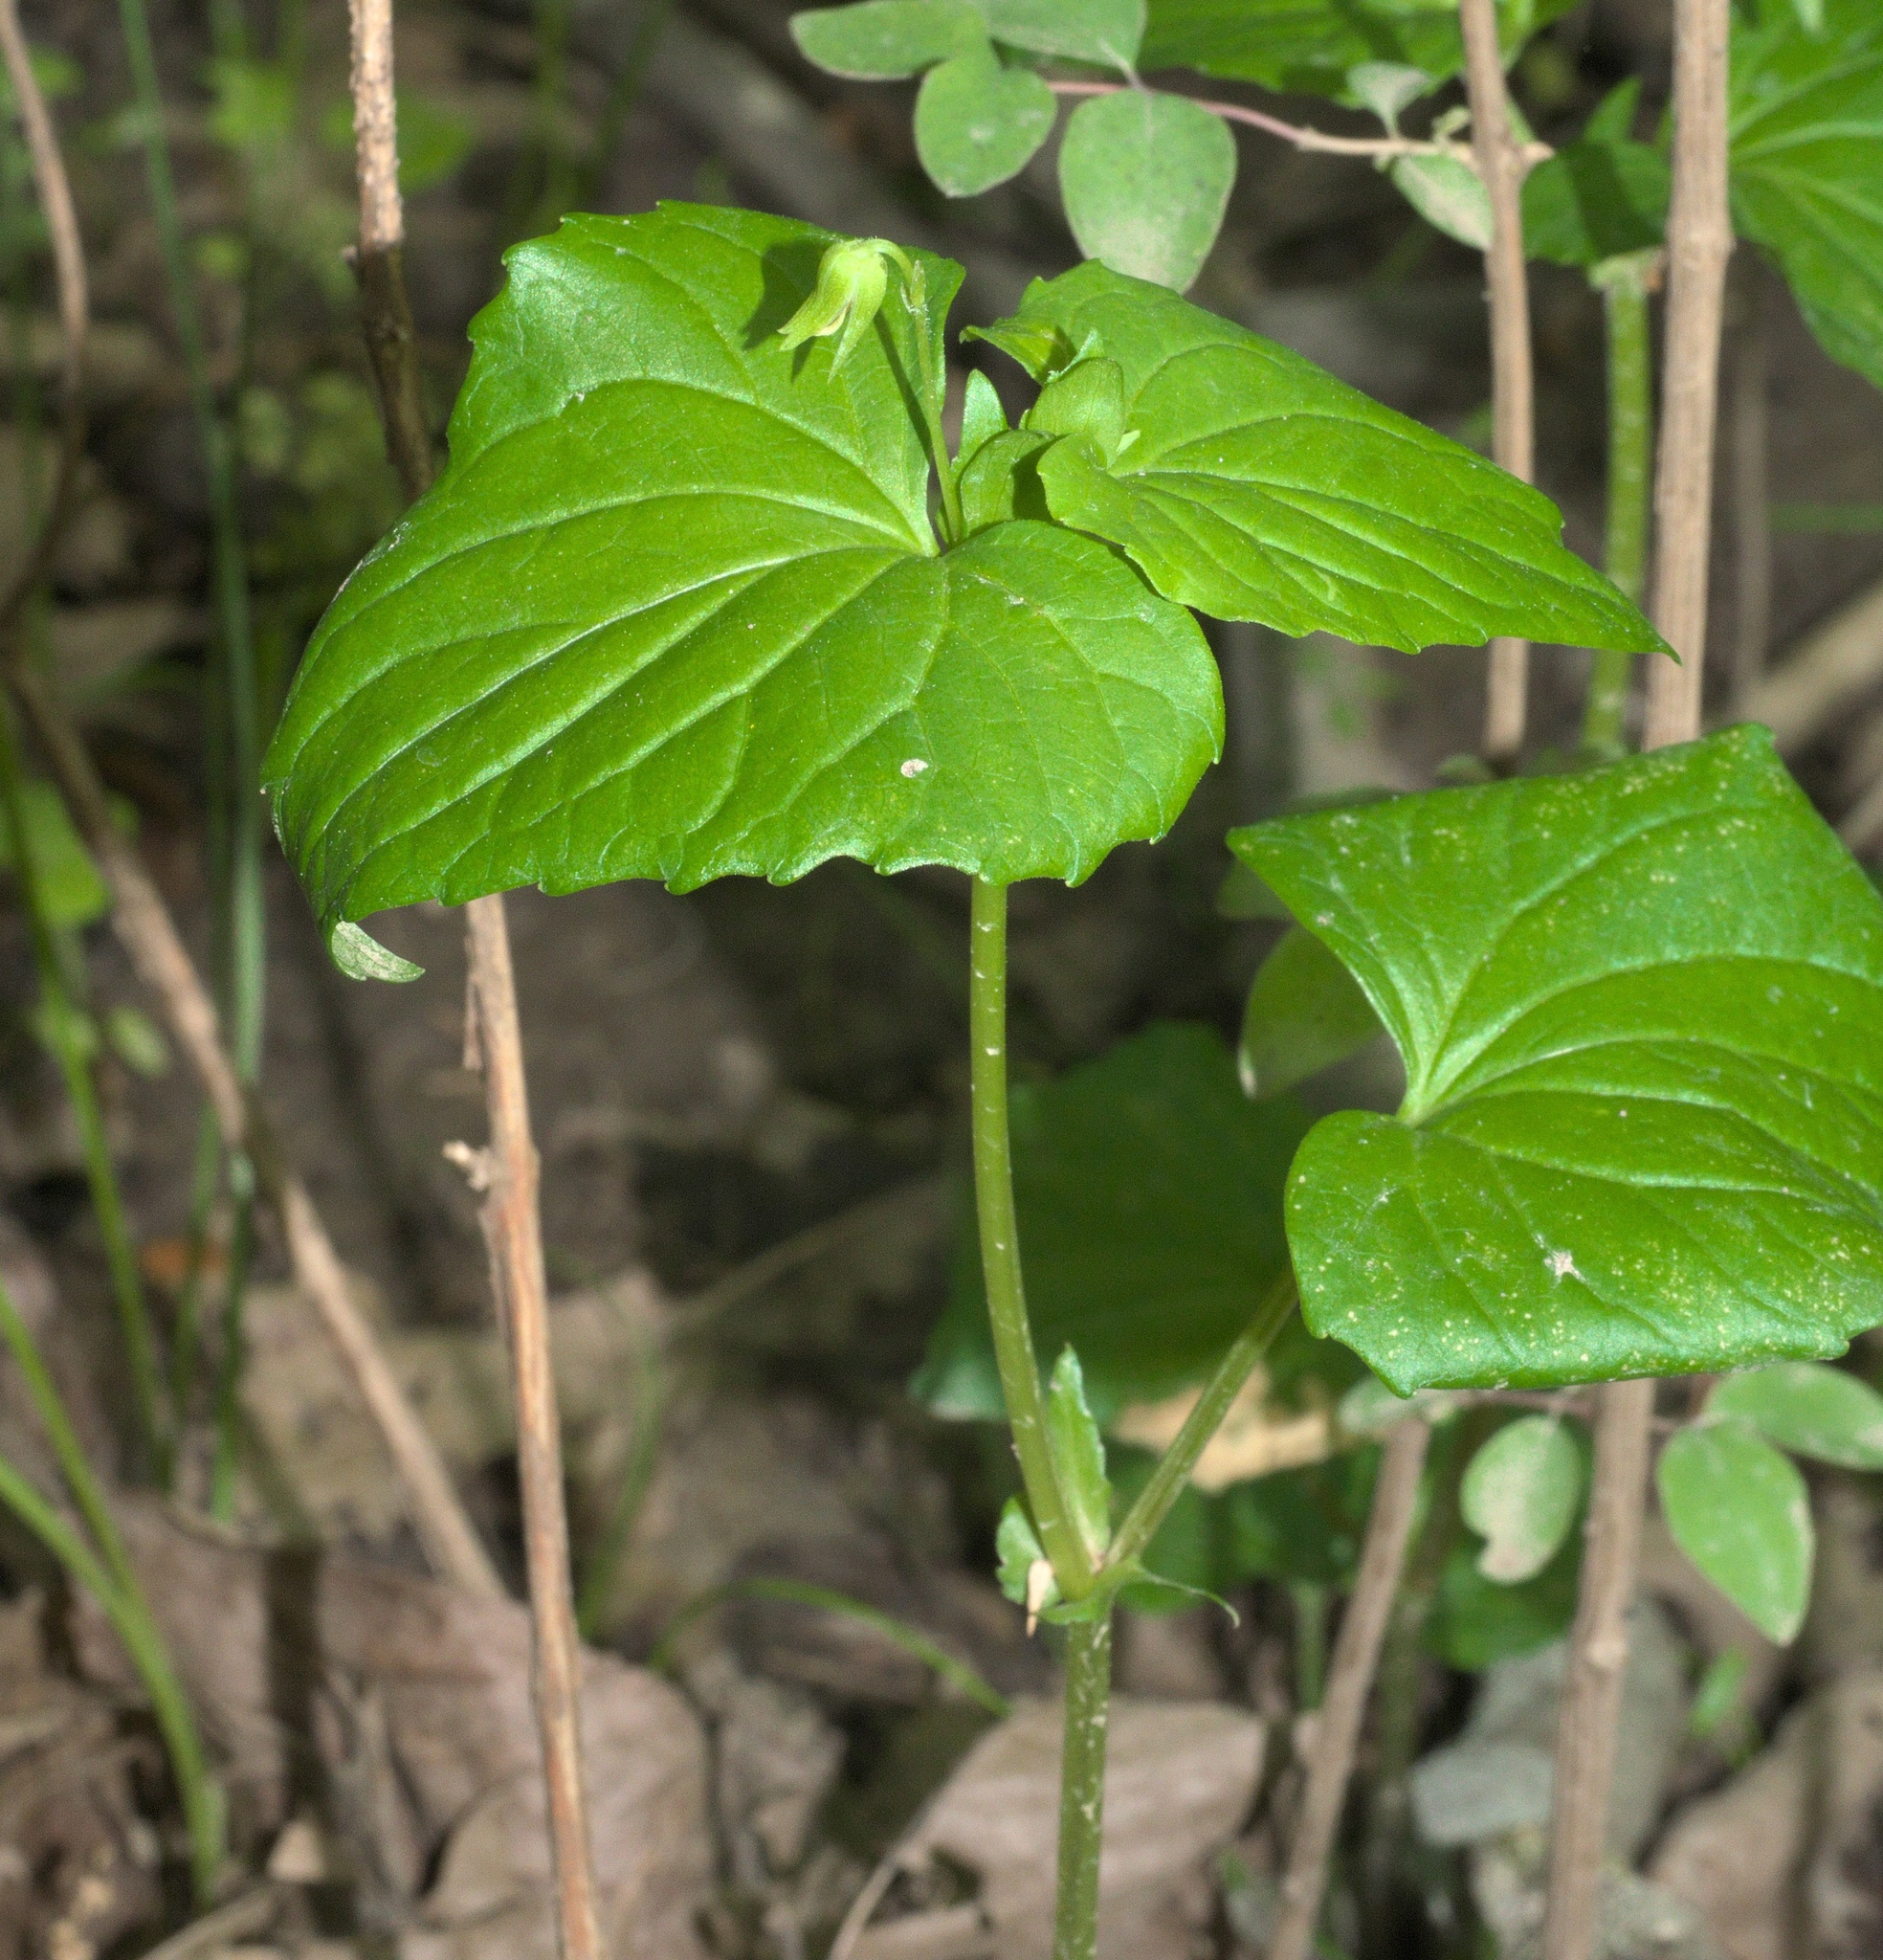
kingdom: Plantae
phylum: Tracheophyta
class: Magnoliopsida
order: Malpighiales
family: Violaceae
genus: Viola
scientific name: Viola eriocarpa
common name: Smooth yellow violet
